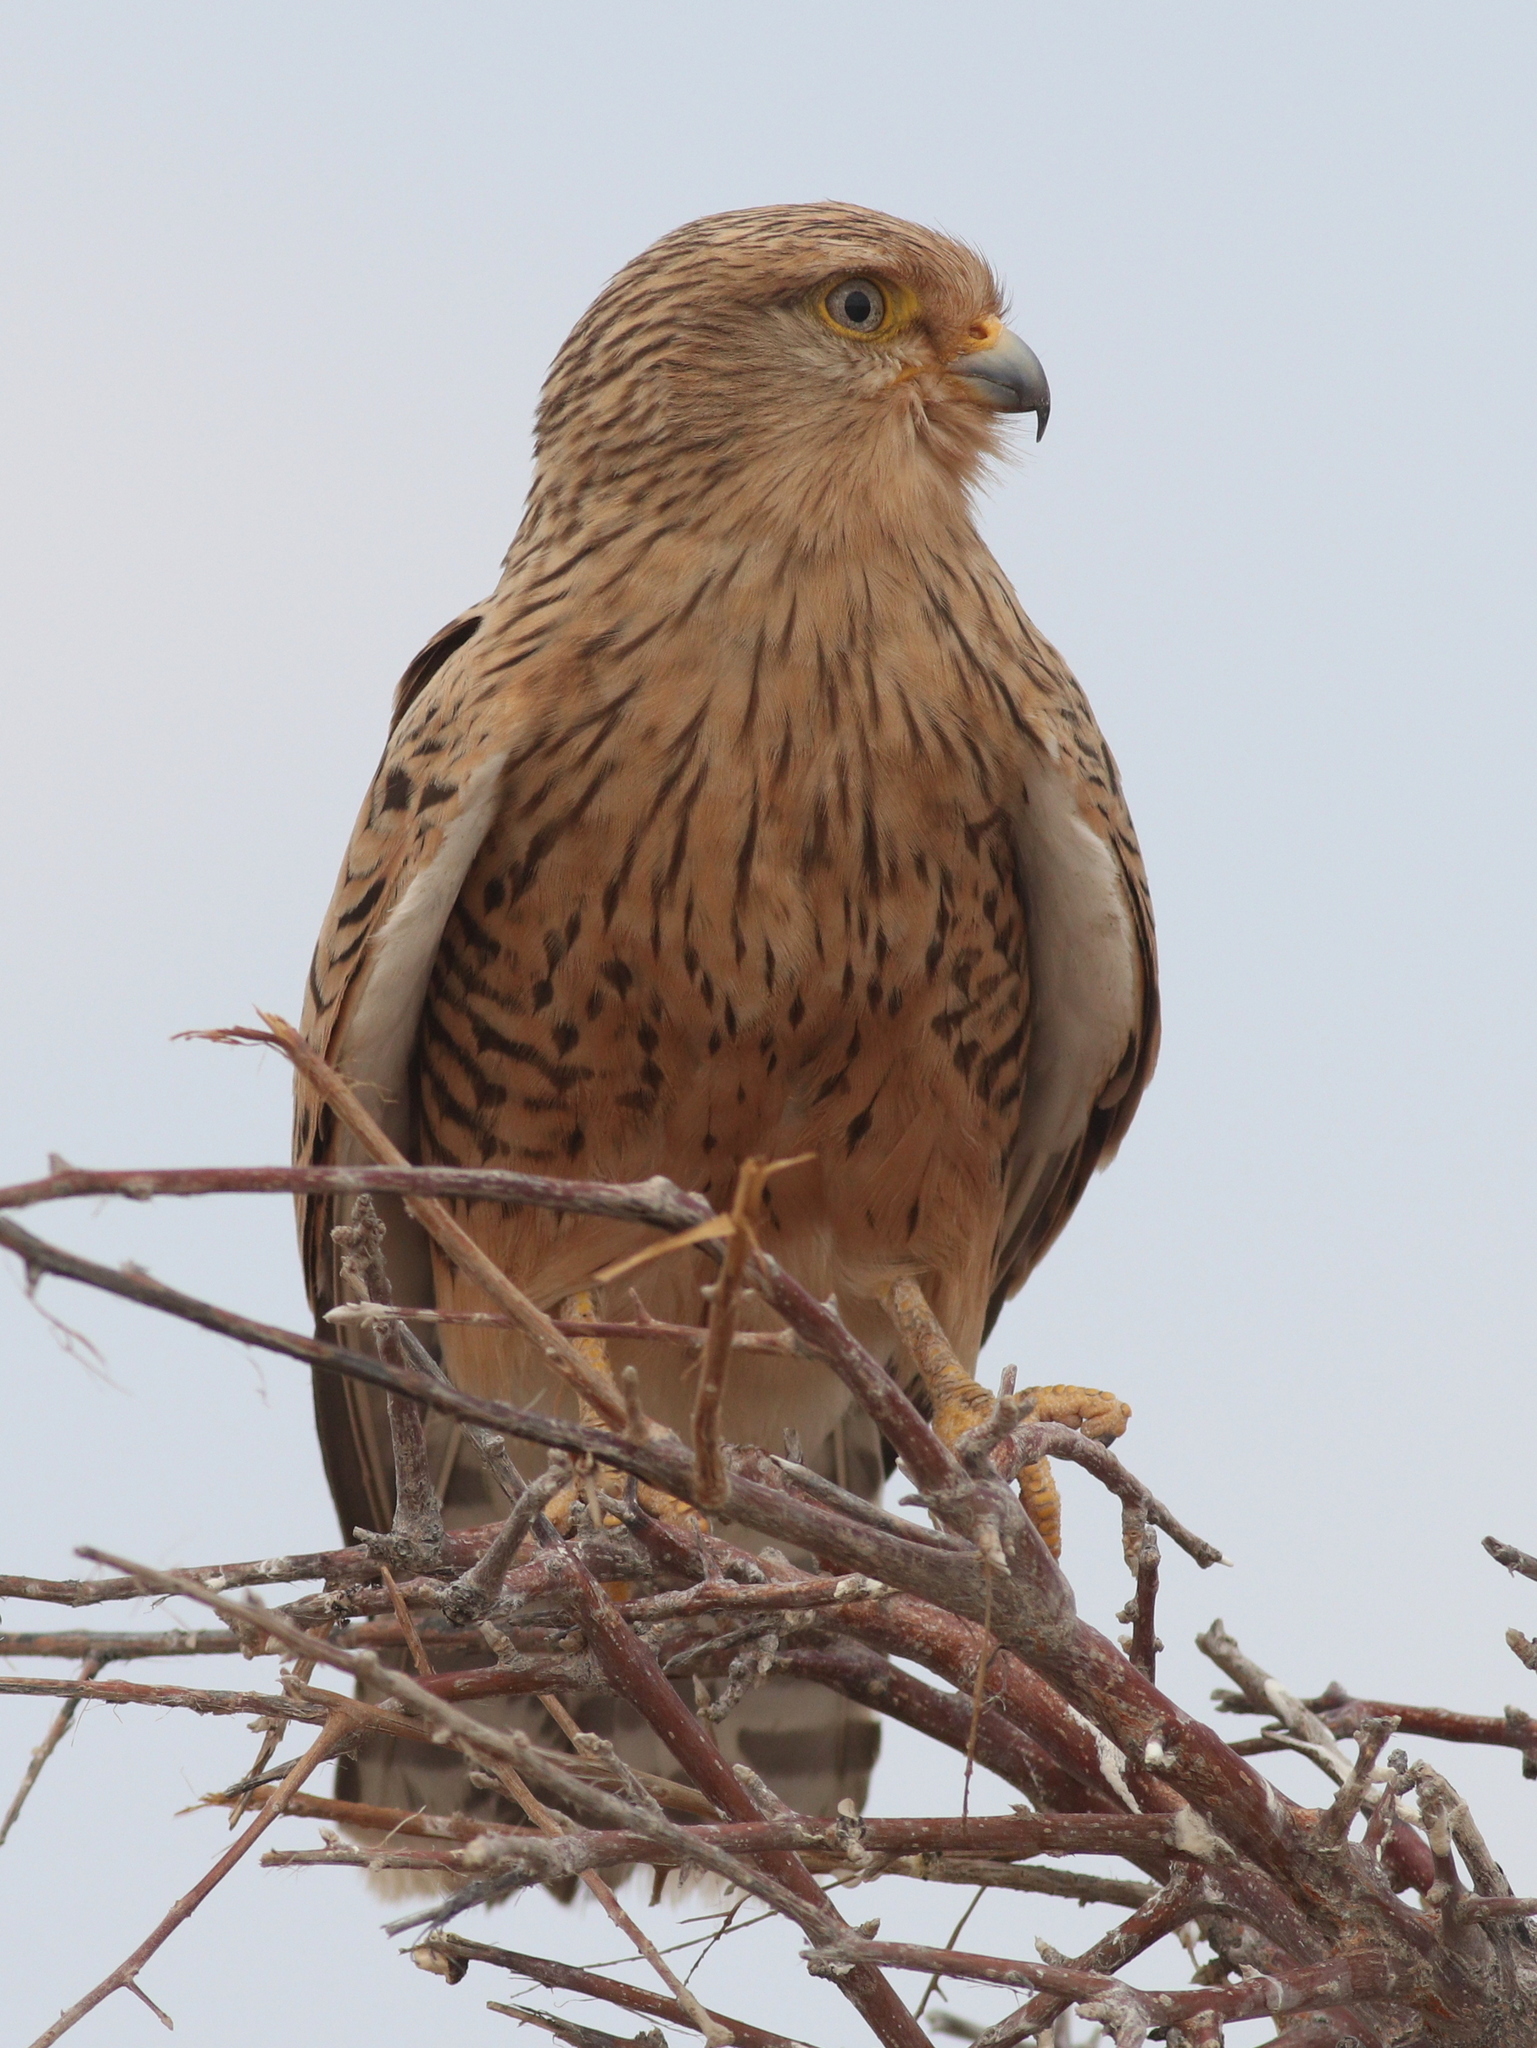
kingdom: Animalia
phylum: Chordata
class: Aves
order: Falconiformes
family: Falconidae
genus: Falco
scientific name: Falco rupicoloides
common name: Greater kestrel
